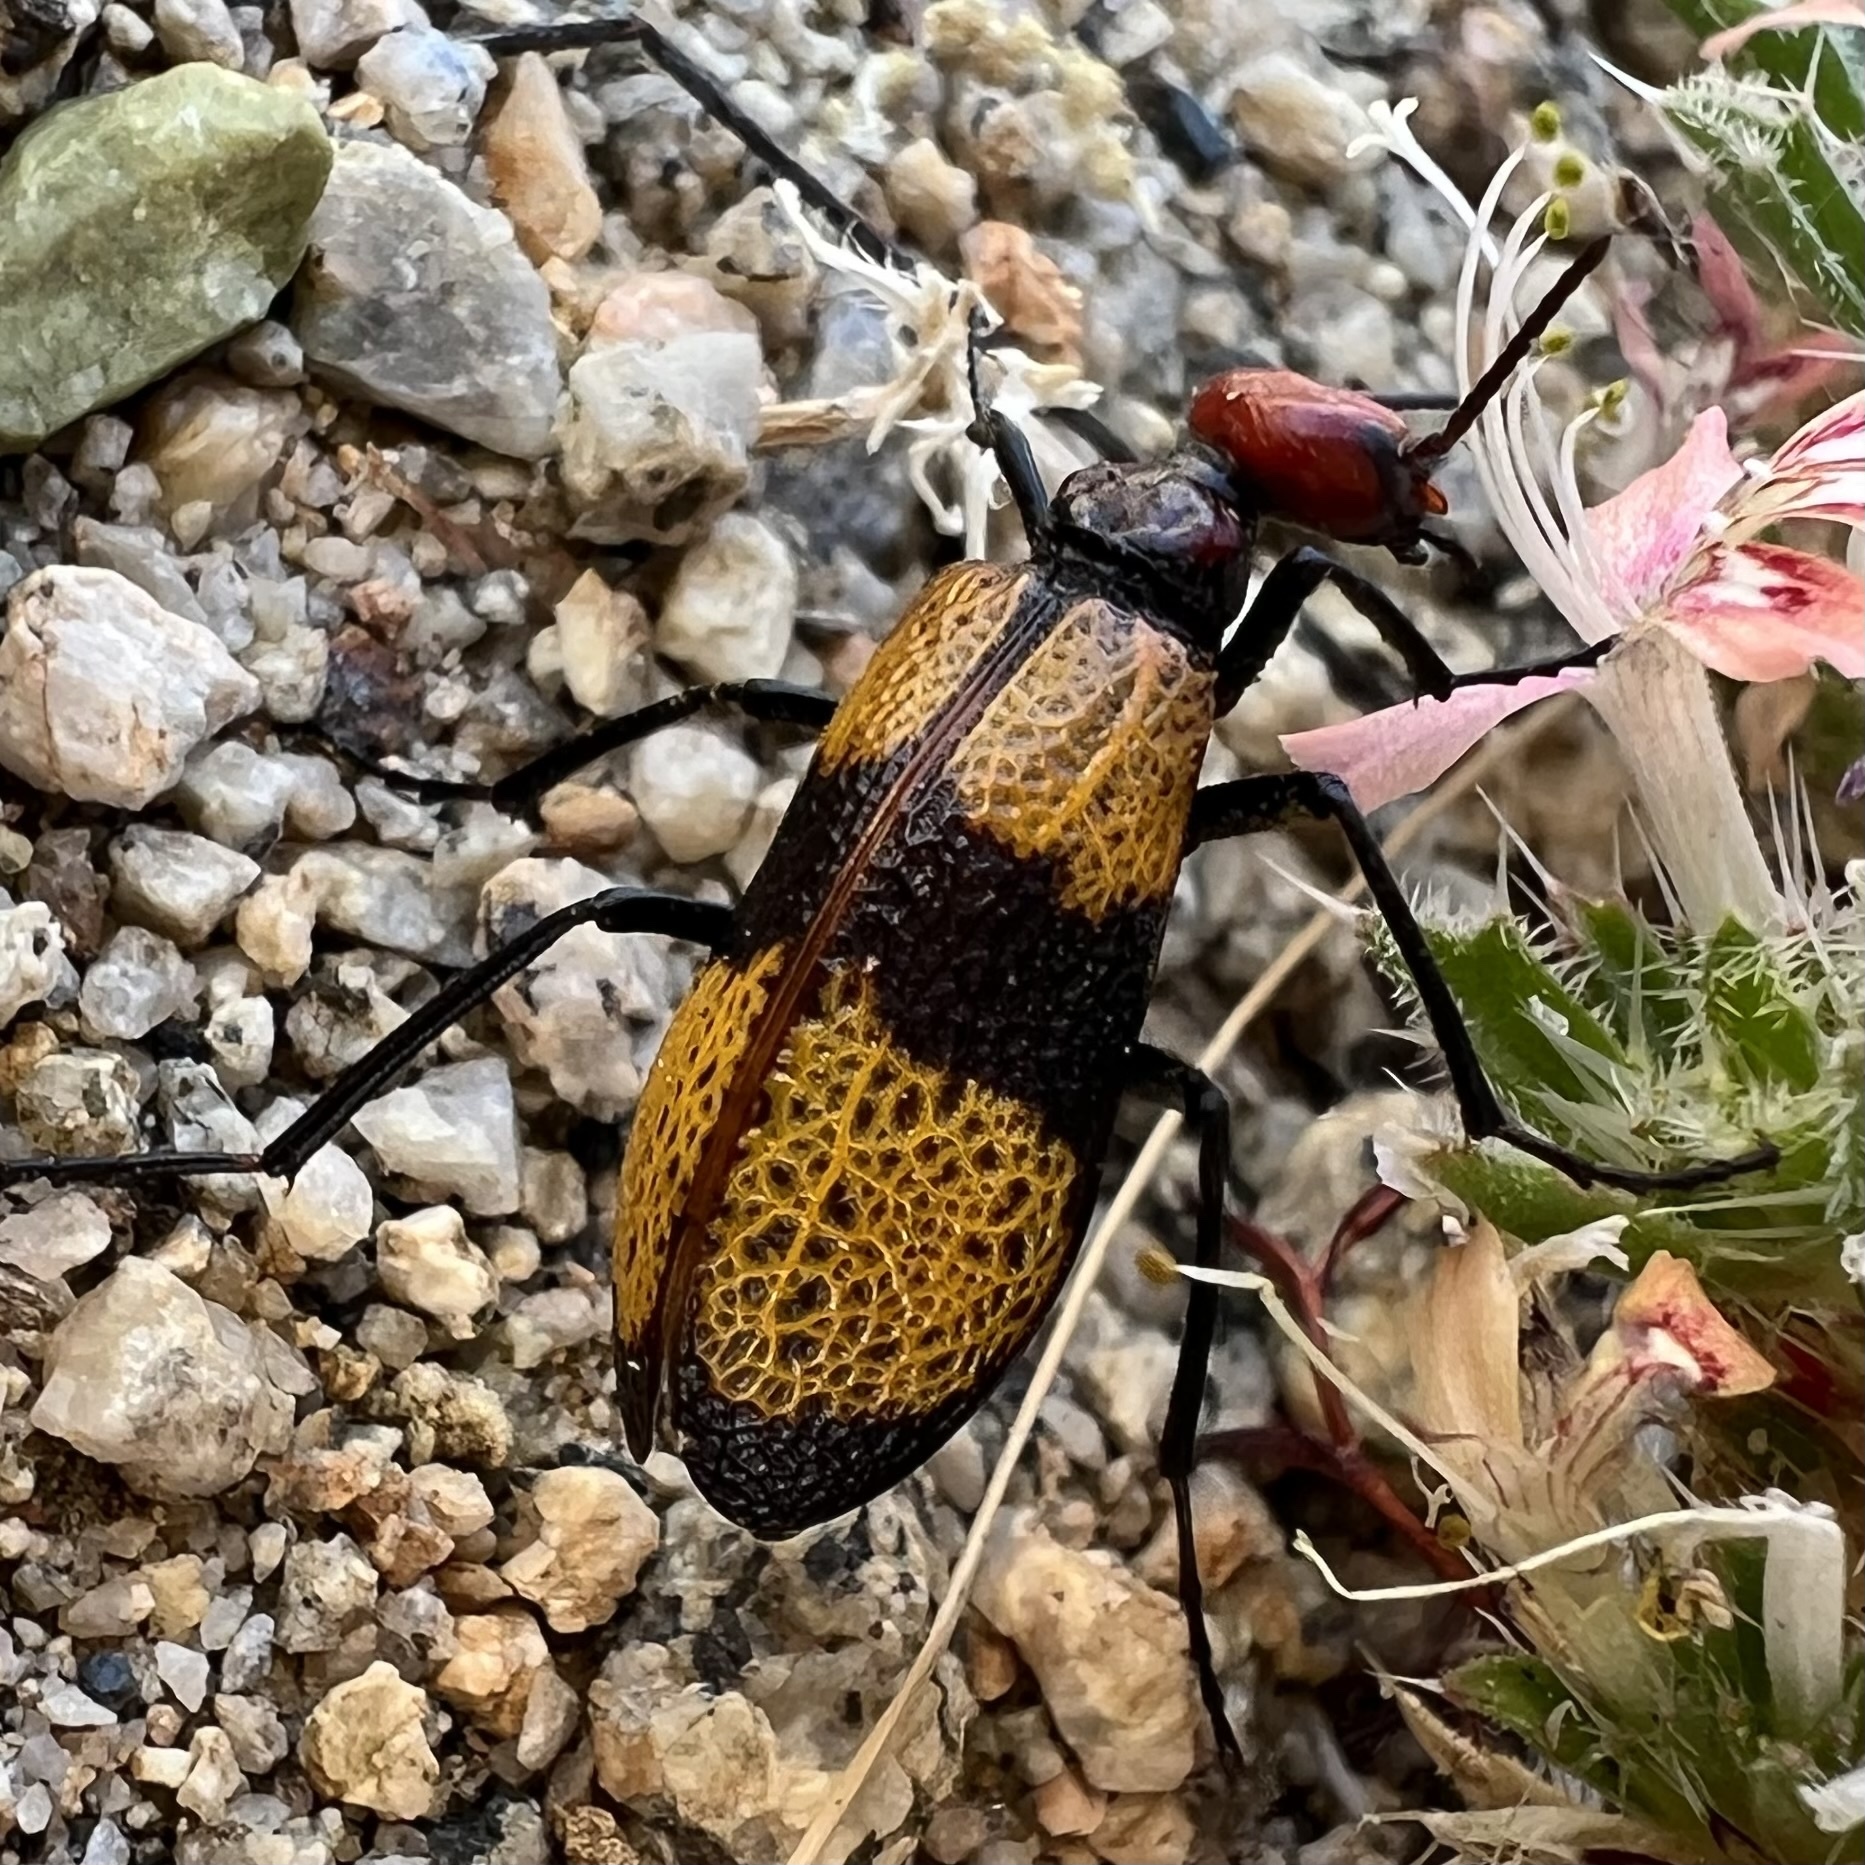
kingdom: Animalia
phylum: Arthropoda
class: Insecta
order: Coleoptera
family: Meloidae
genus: Tegrodera
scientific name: Tegrodera latecincta
